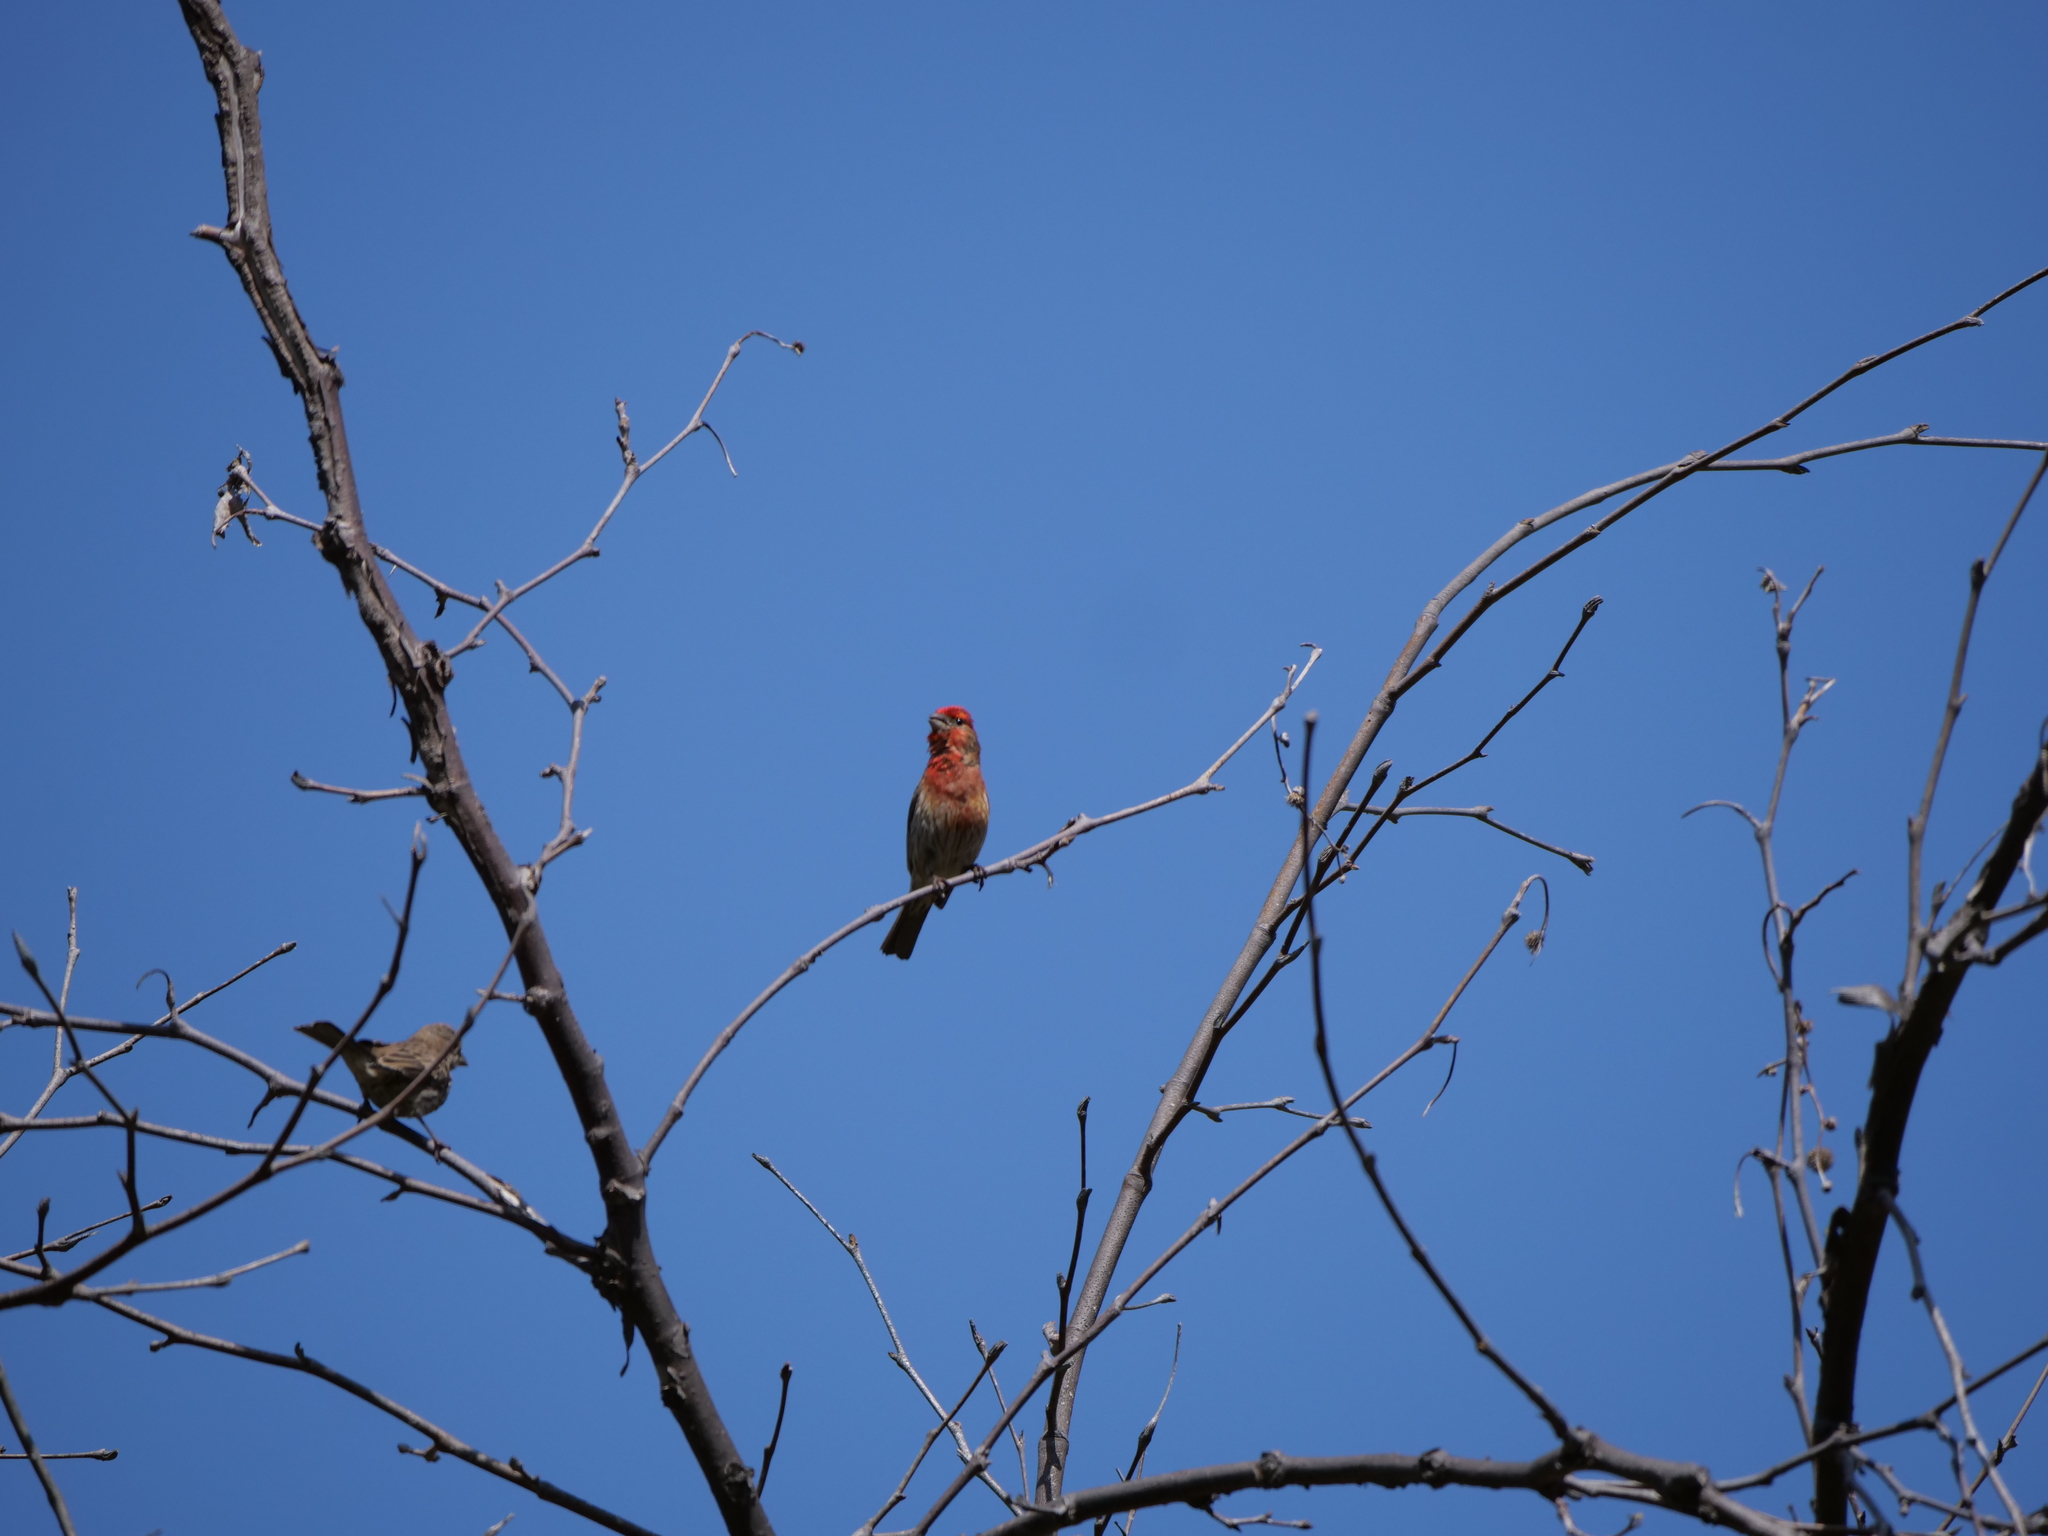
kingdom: Animalia
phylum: Chordata
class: Aves
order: Passeriformes
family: Fringillidae
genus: Haemorhous
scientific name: Haemorhous mexicanus
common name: House finch
